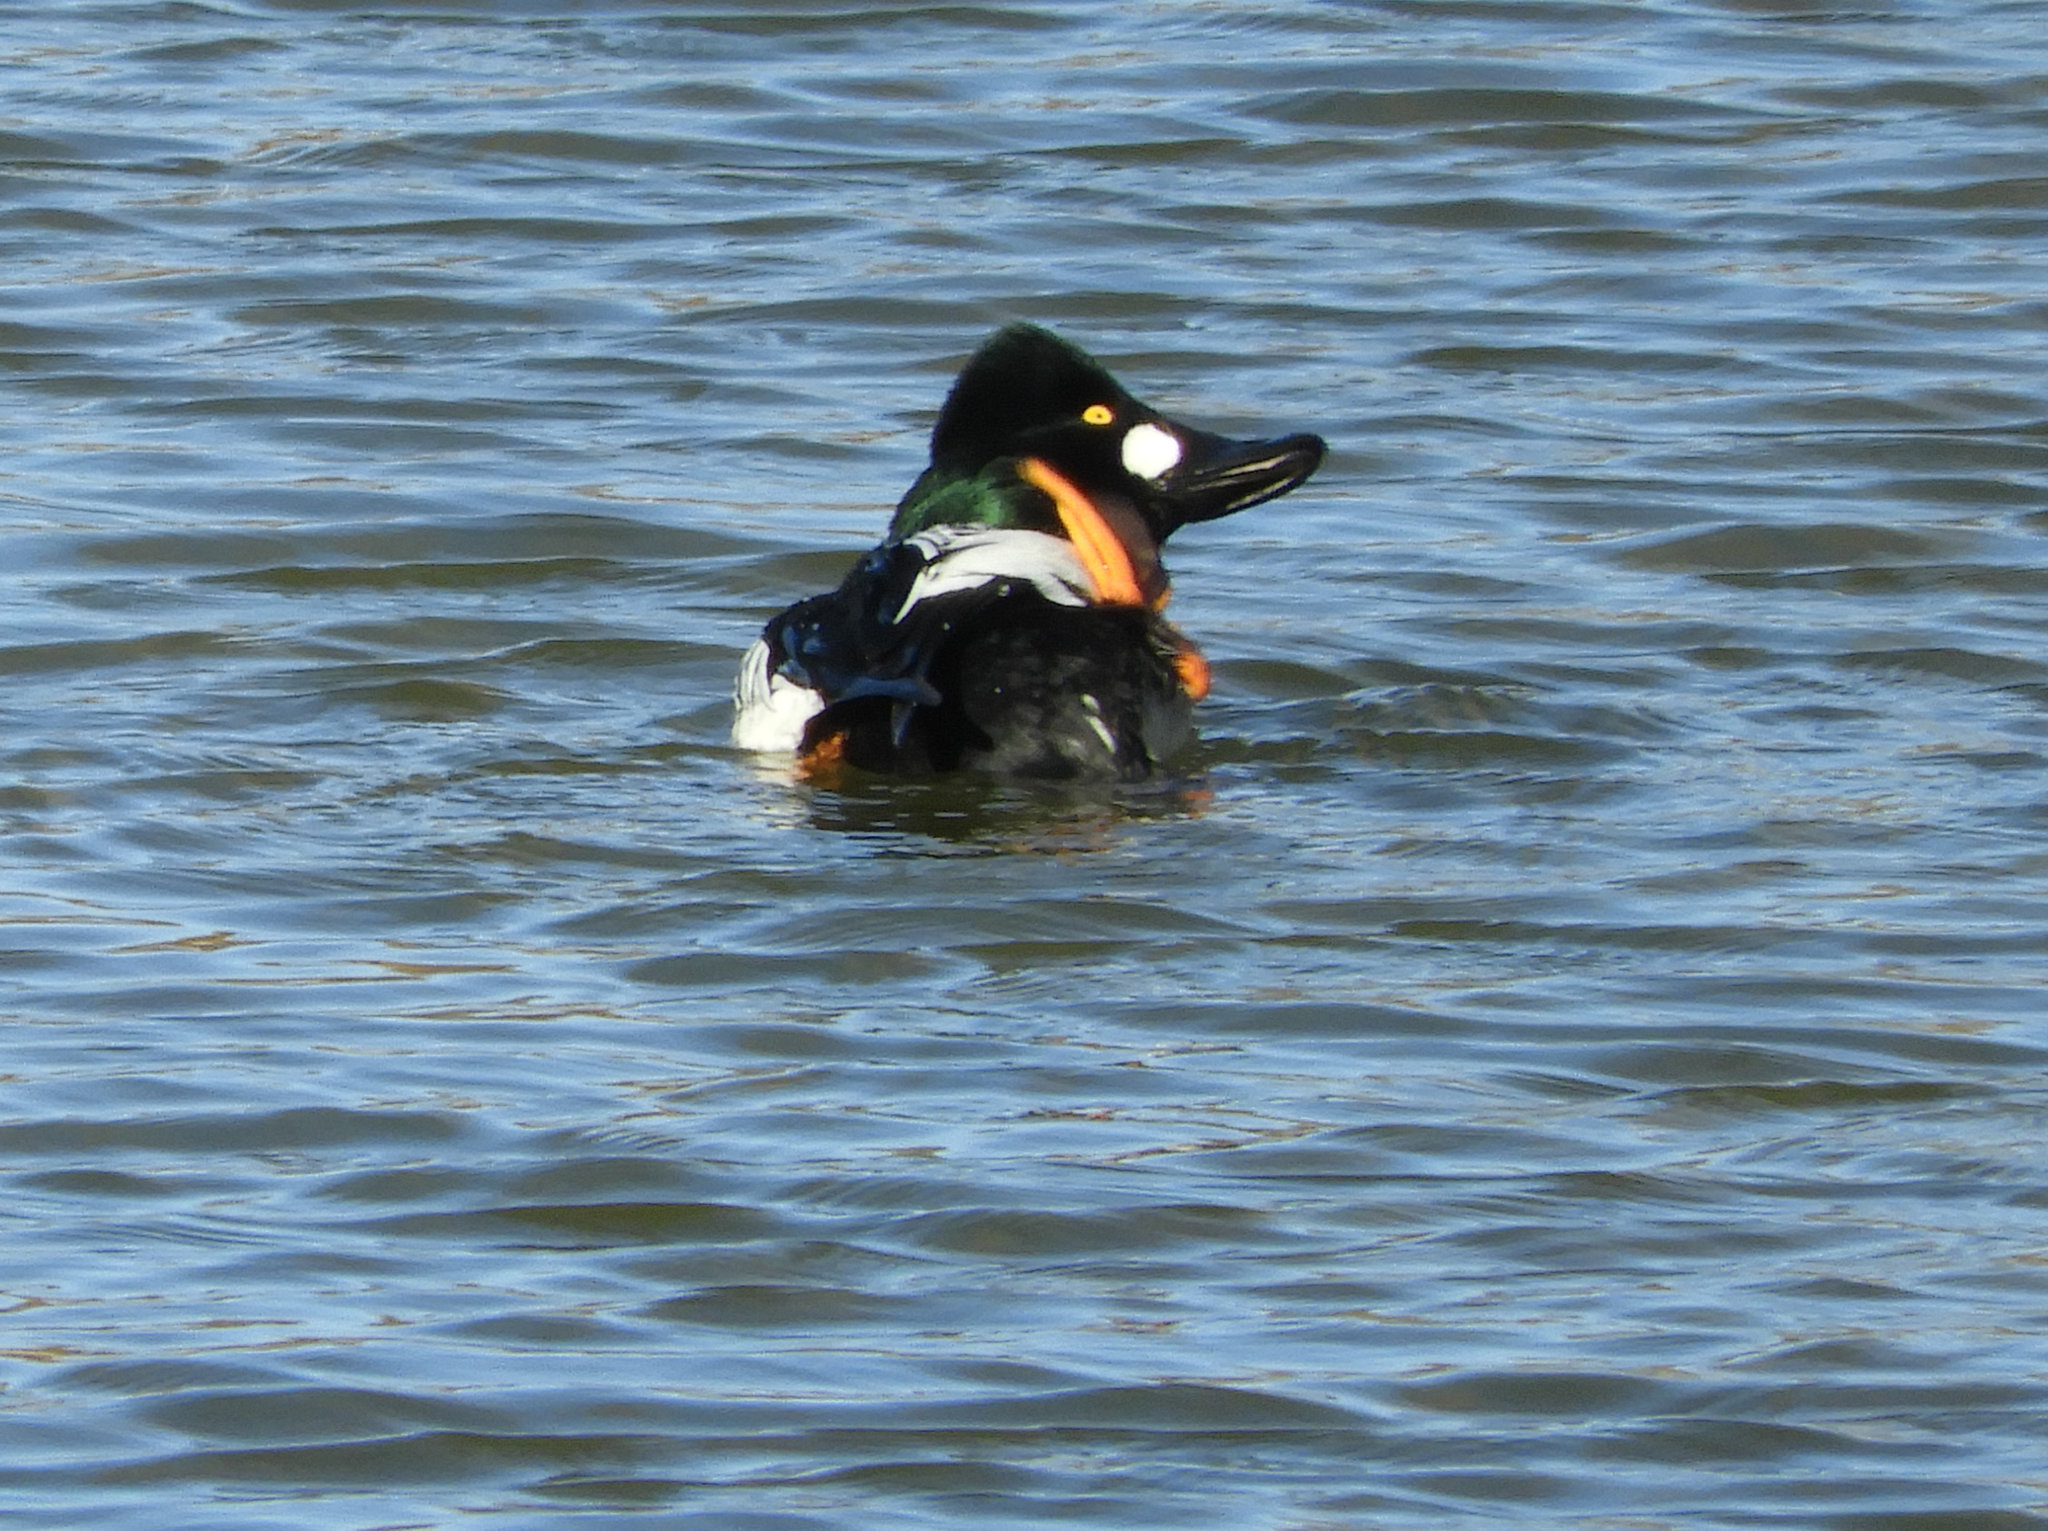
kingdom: Animalia
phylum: Chordata
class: Aves
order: Anseriformes
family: Anatidae
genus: Bucephala
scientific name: Bucephala clangula
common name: Common goldeneye
